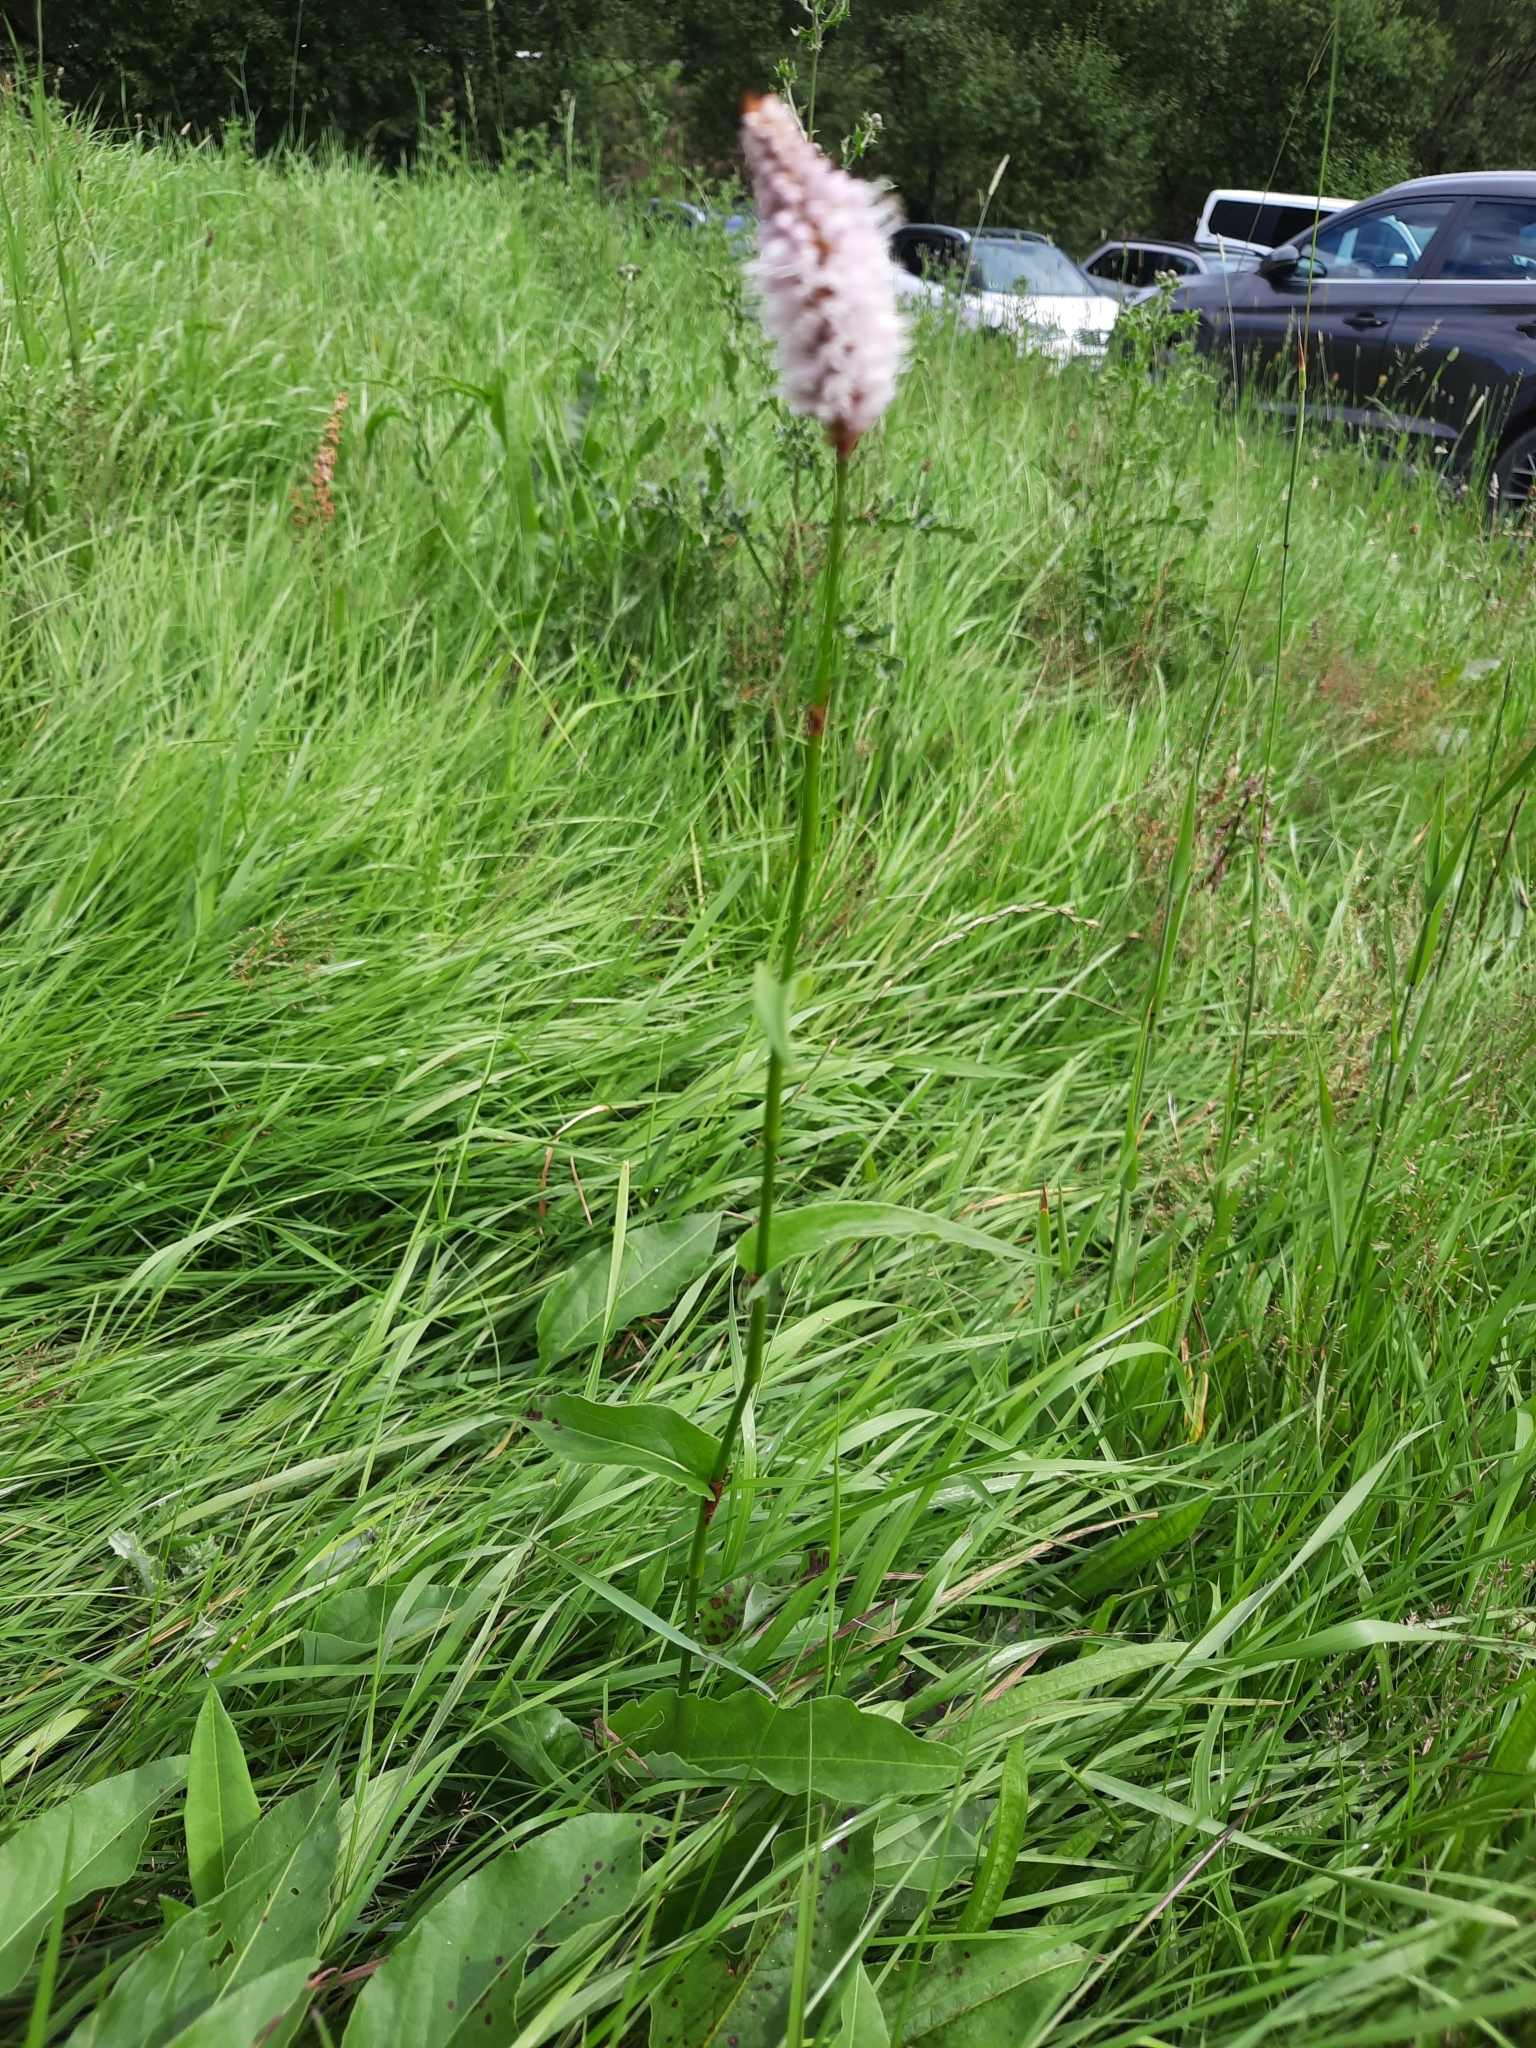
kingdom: Plantae
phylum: Tracheophyta
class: Magnoliopsida
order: Caryophyllales
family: Polygonaceae
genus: Bistorta
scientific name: Bistorta officinalis
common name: Common bistort
